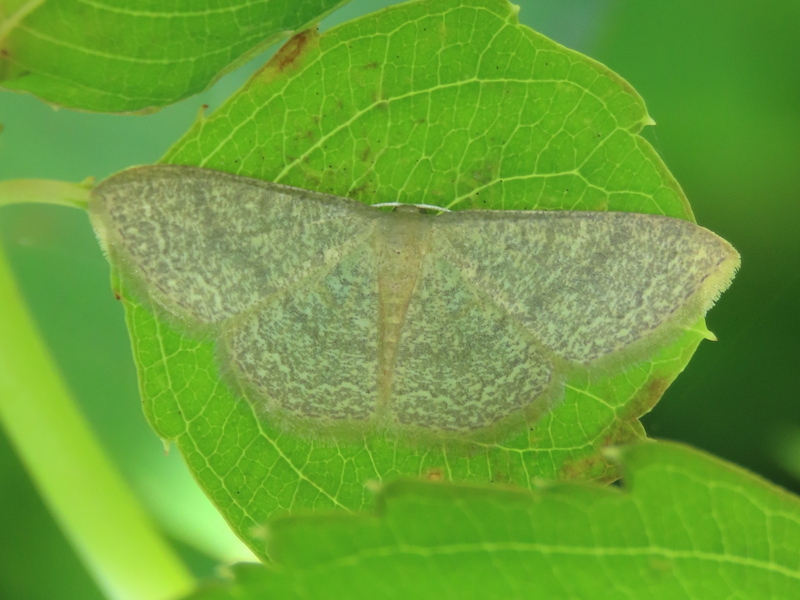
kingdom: Animalia
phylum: Arthropoda
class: Insecta
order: Lepidoptera
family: Geometridae
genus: Pleuroprucha
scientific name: Pleuroprucha insulsaria
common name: Common tan wave
